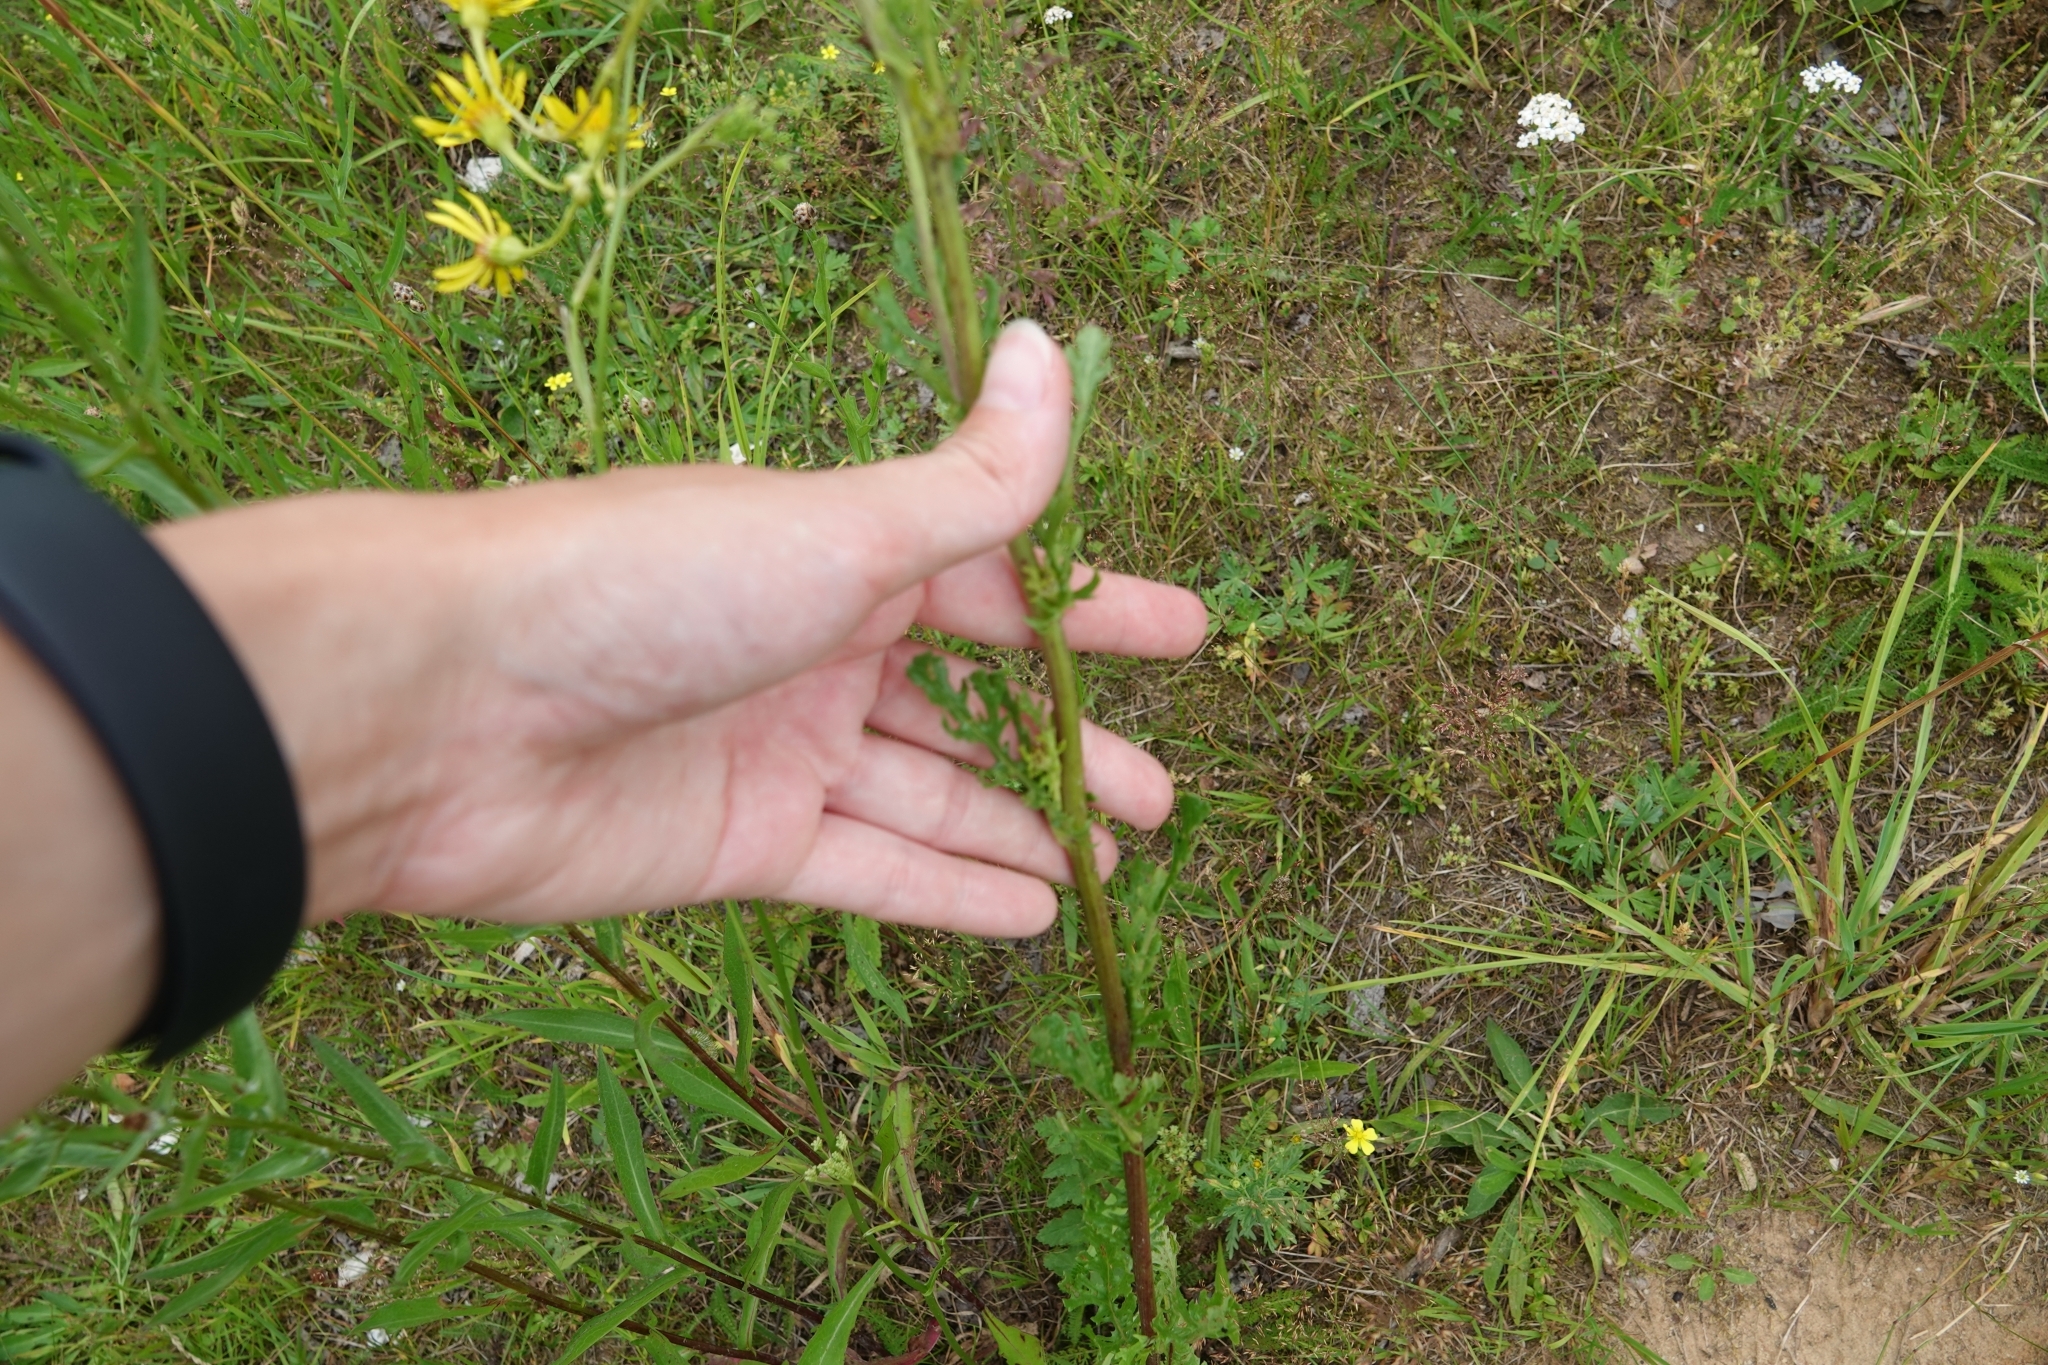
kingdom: Plantae
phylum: Tracheophyta
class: Magnoliopsida
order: Asterales
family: Asteraceae
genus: Jacobaea
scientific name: Jacobaea vulgaris
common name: Stinking willie
